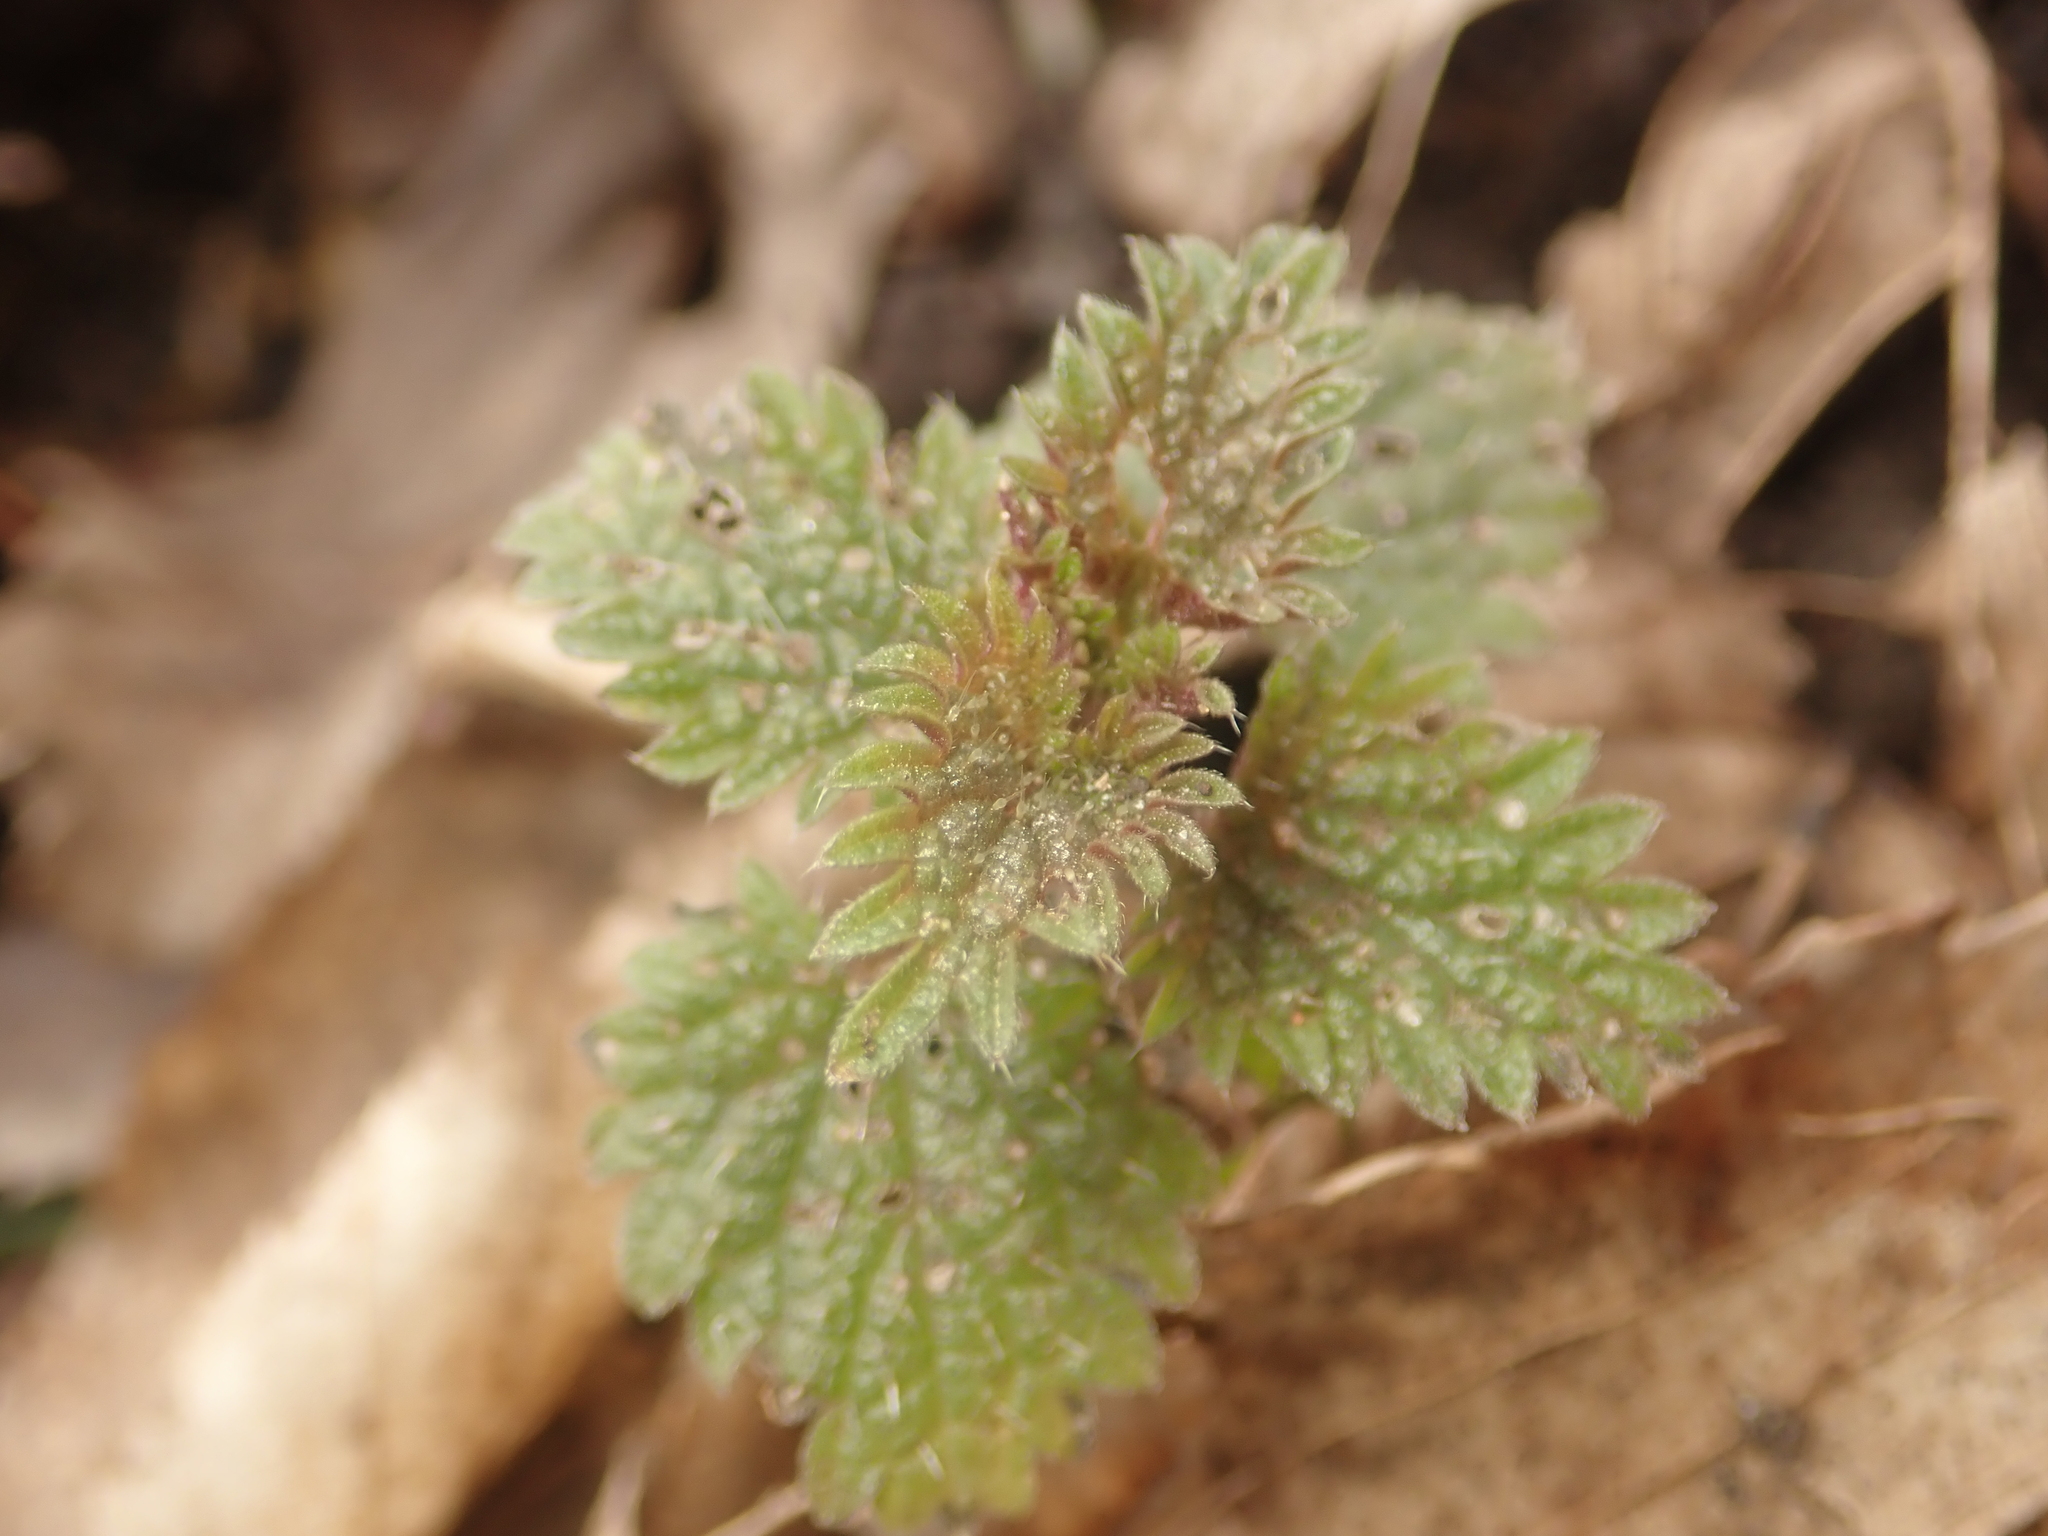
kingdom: Plantae
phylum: Tracheophyta
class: Magnoliopsida
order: Rosales
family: Urticaceae
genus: Urtica
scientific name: Urtica dioica
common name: Common nettle
